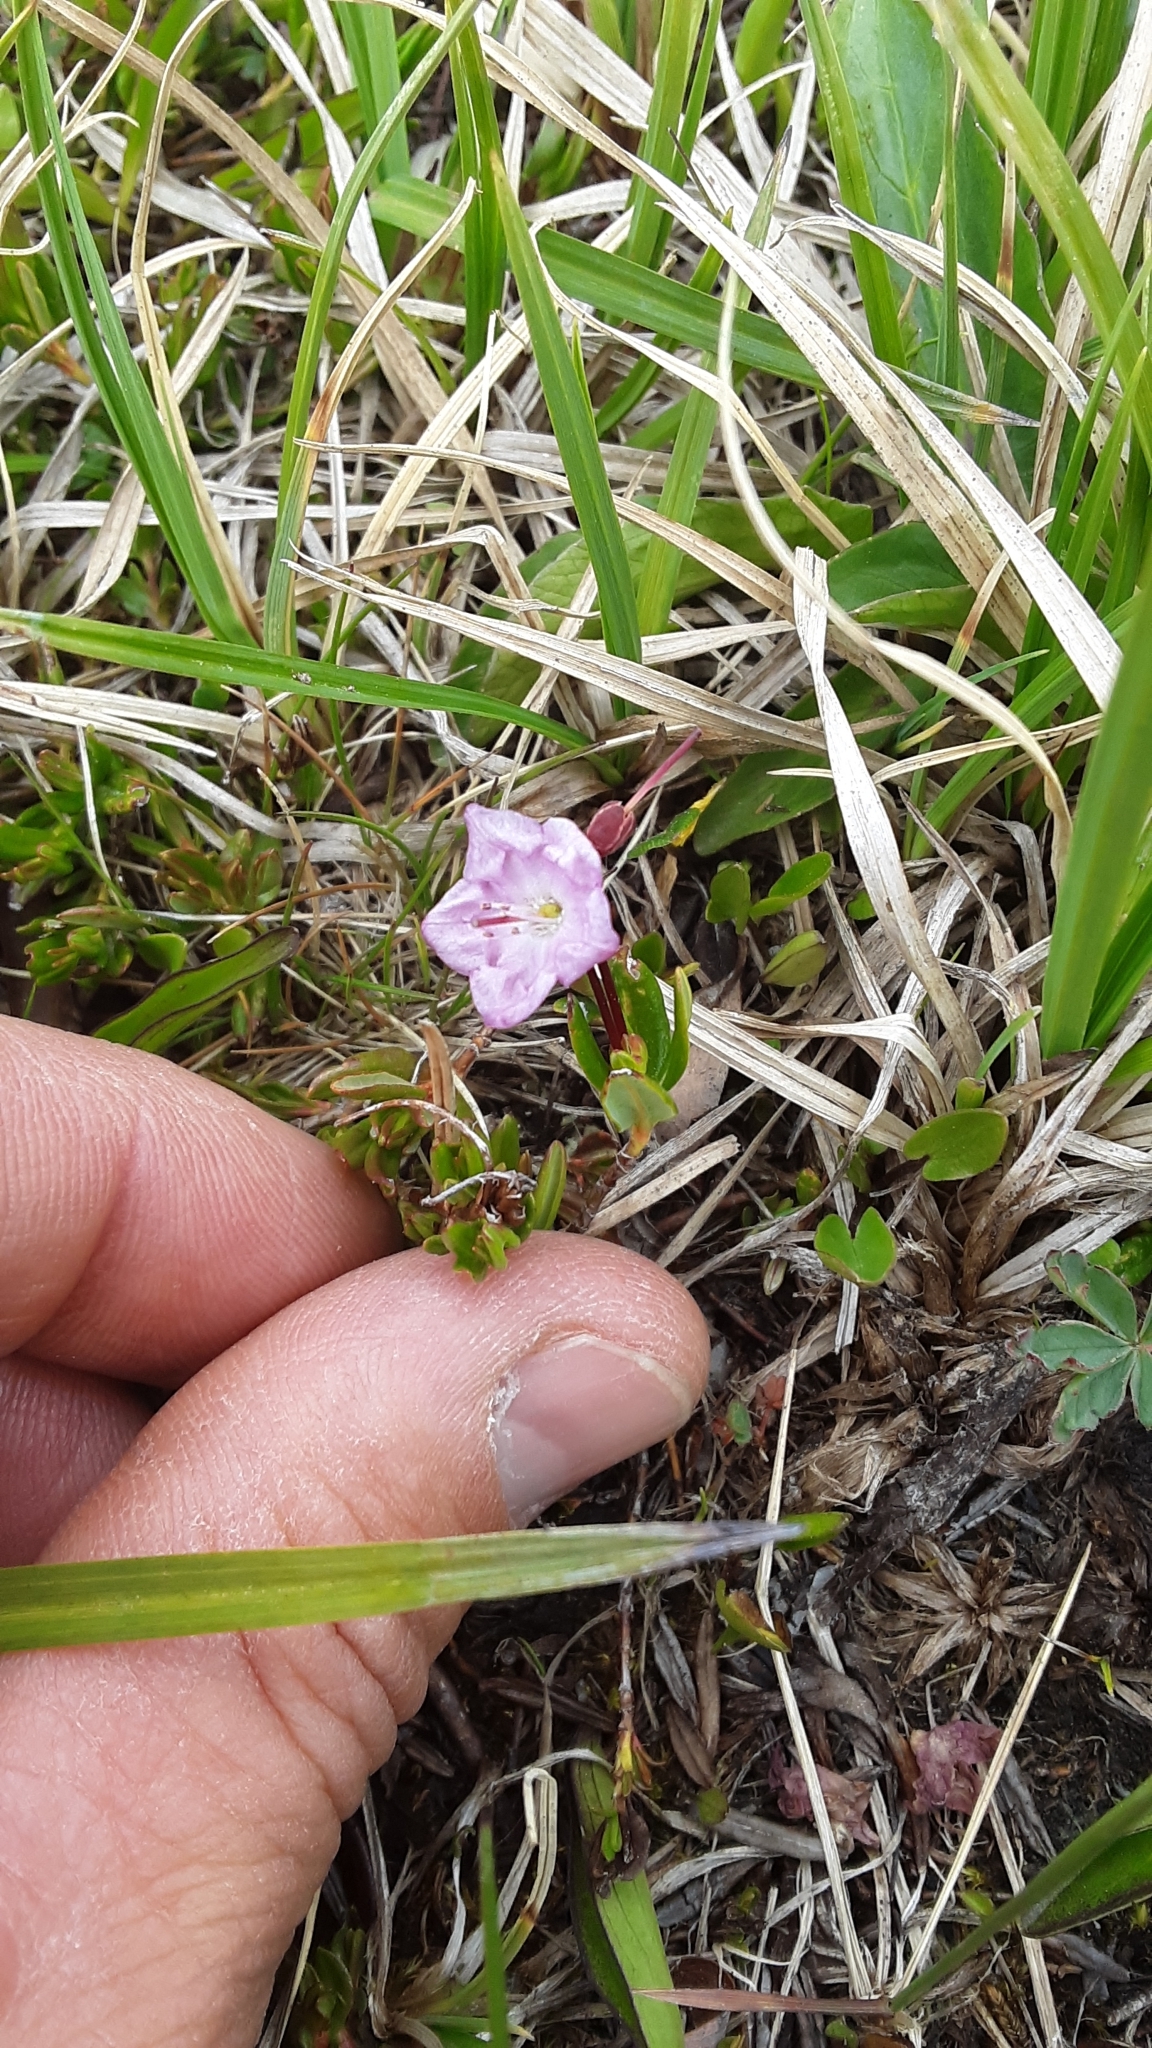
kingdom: Plantae
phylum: Tracheophyta
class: Magnoliopsida
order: Ericales
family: Ericaceae
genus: Kalmia
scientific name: Kalmia microphylla
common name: Alpine bog laurel
